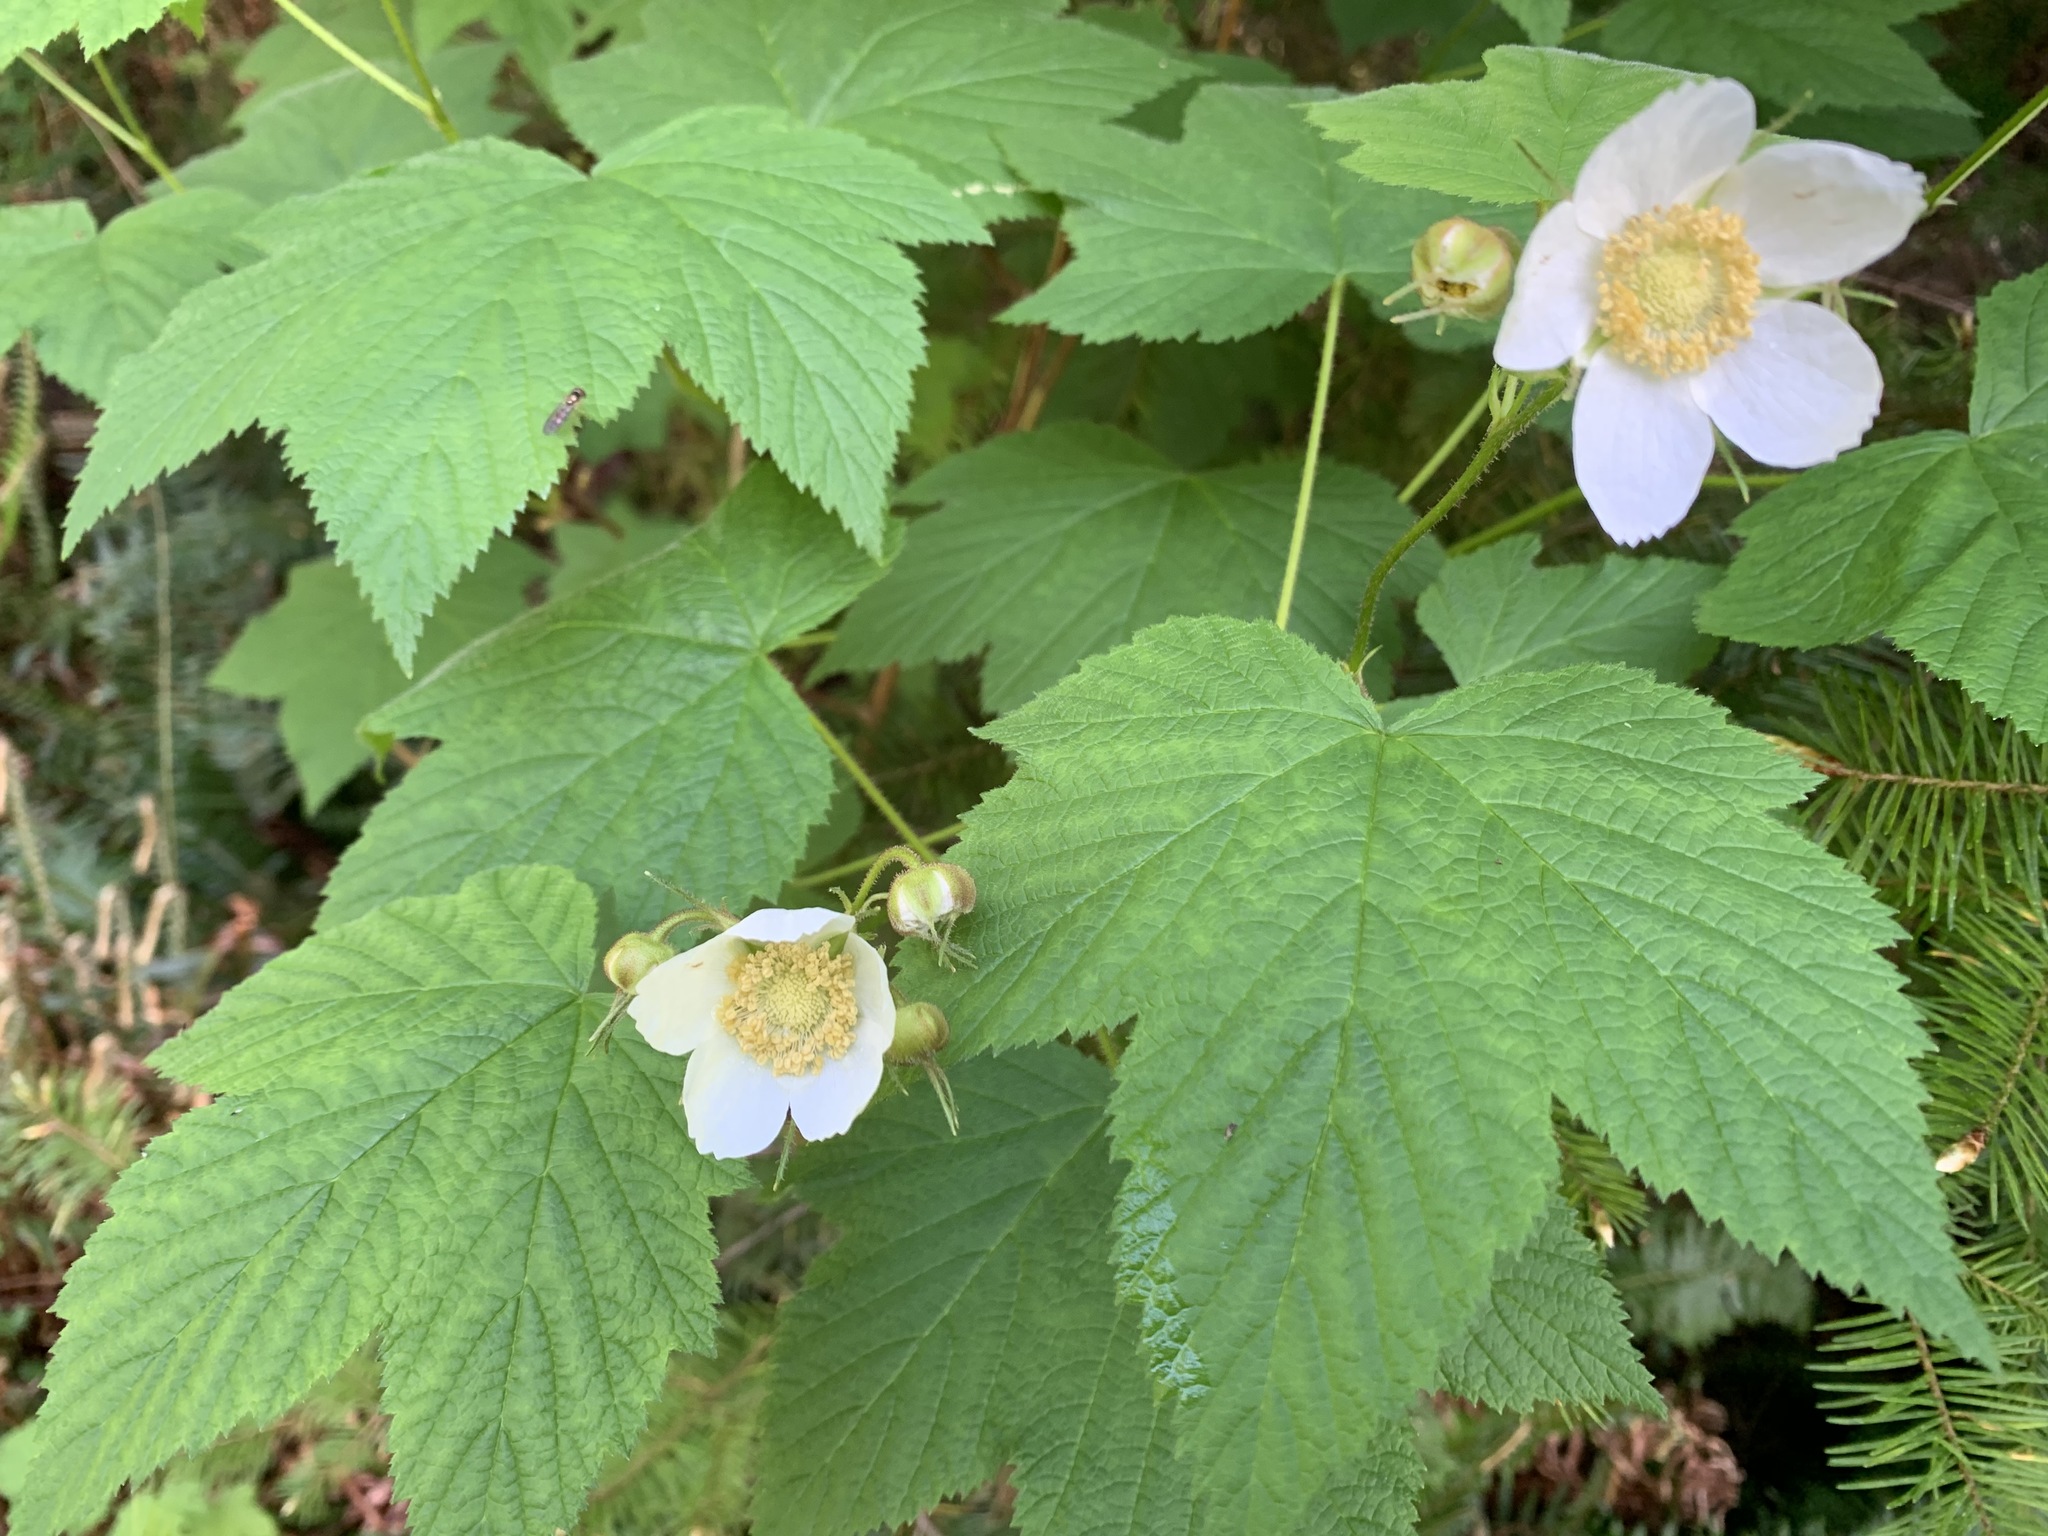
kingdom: Plantae
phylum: Tracheophyta
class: Magnoliopsida
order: Rosales
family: Rosaceae
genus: Rubus
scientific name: Rubus parviflorus
